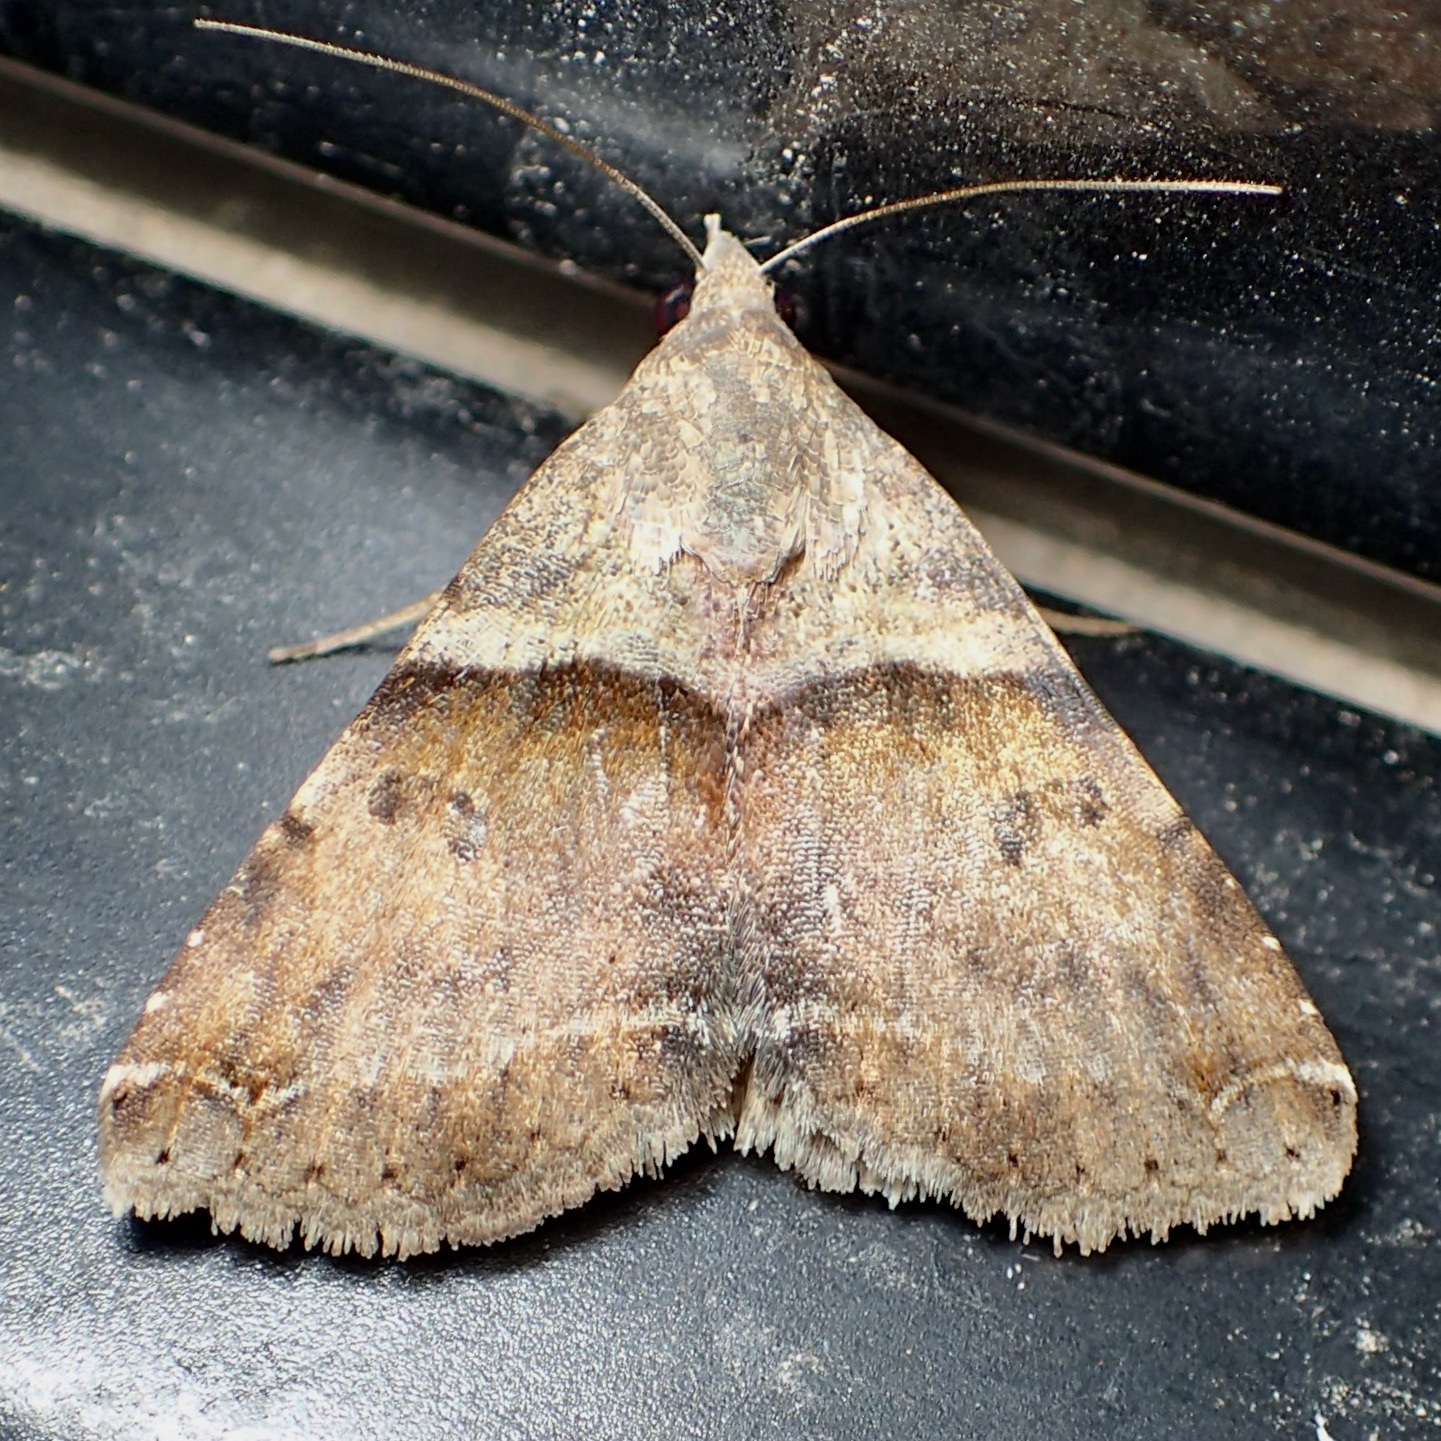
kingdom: Animalia
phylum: Arthropoda
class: Insecta
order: Lepidoptera
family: Erebidae
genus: Panula
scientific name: Panula inconstans
